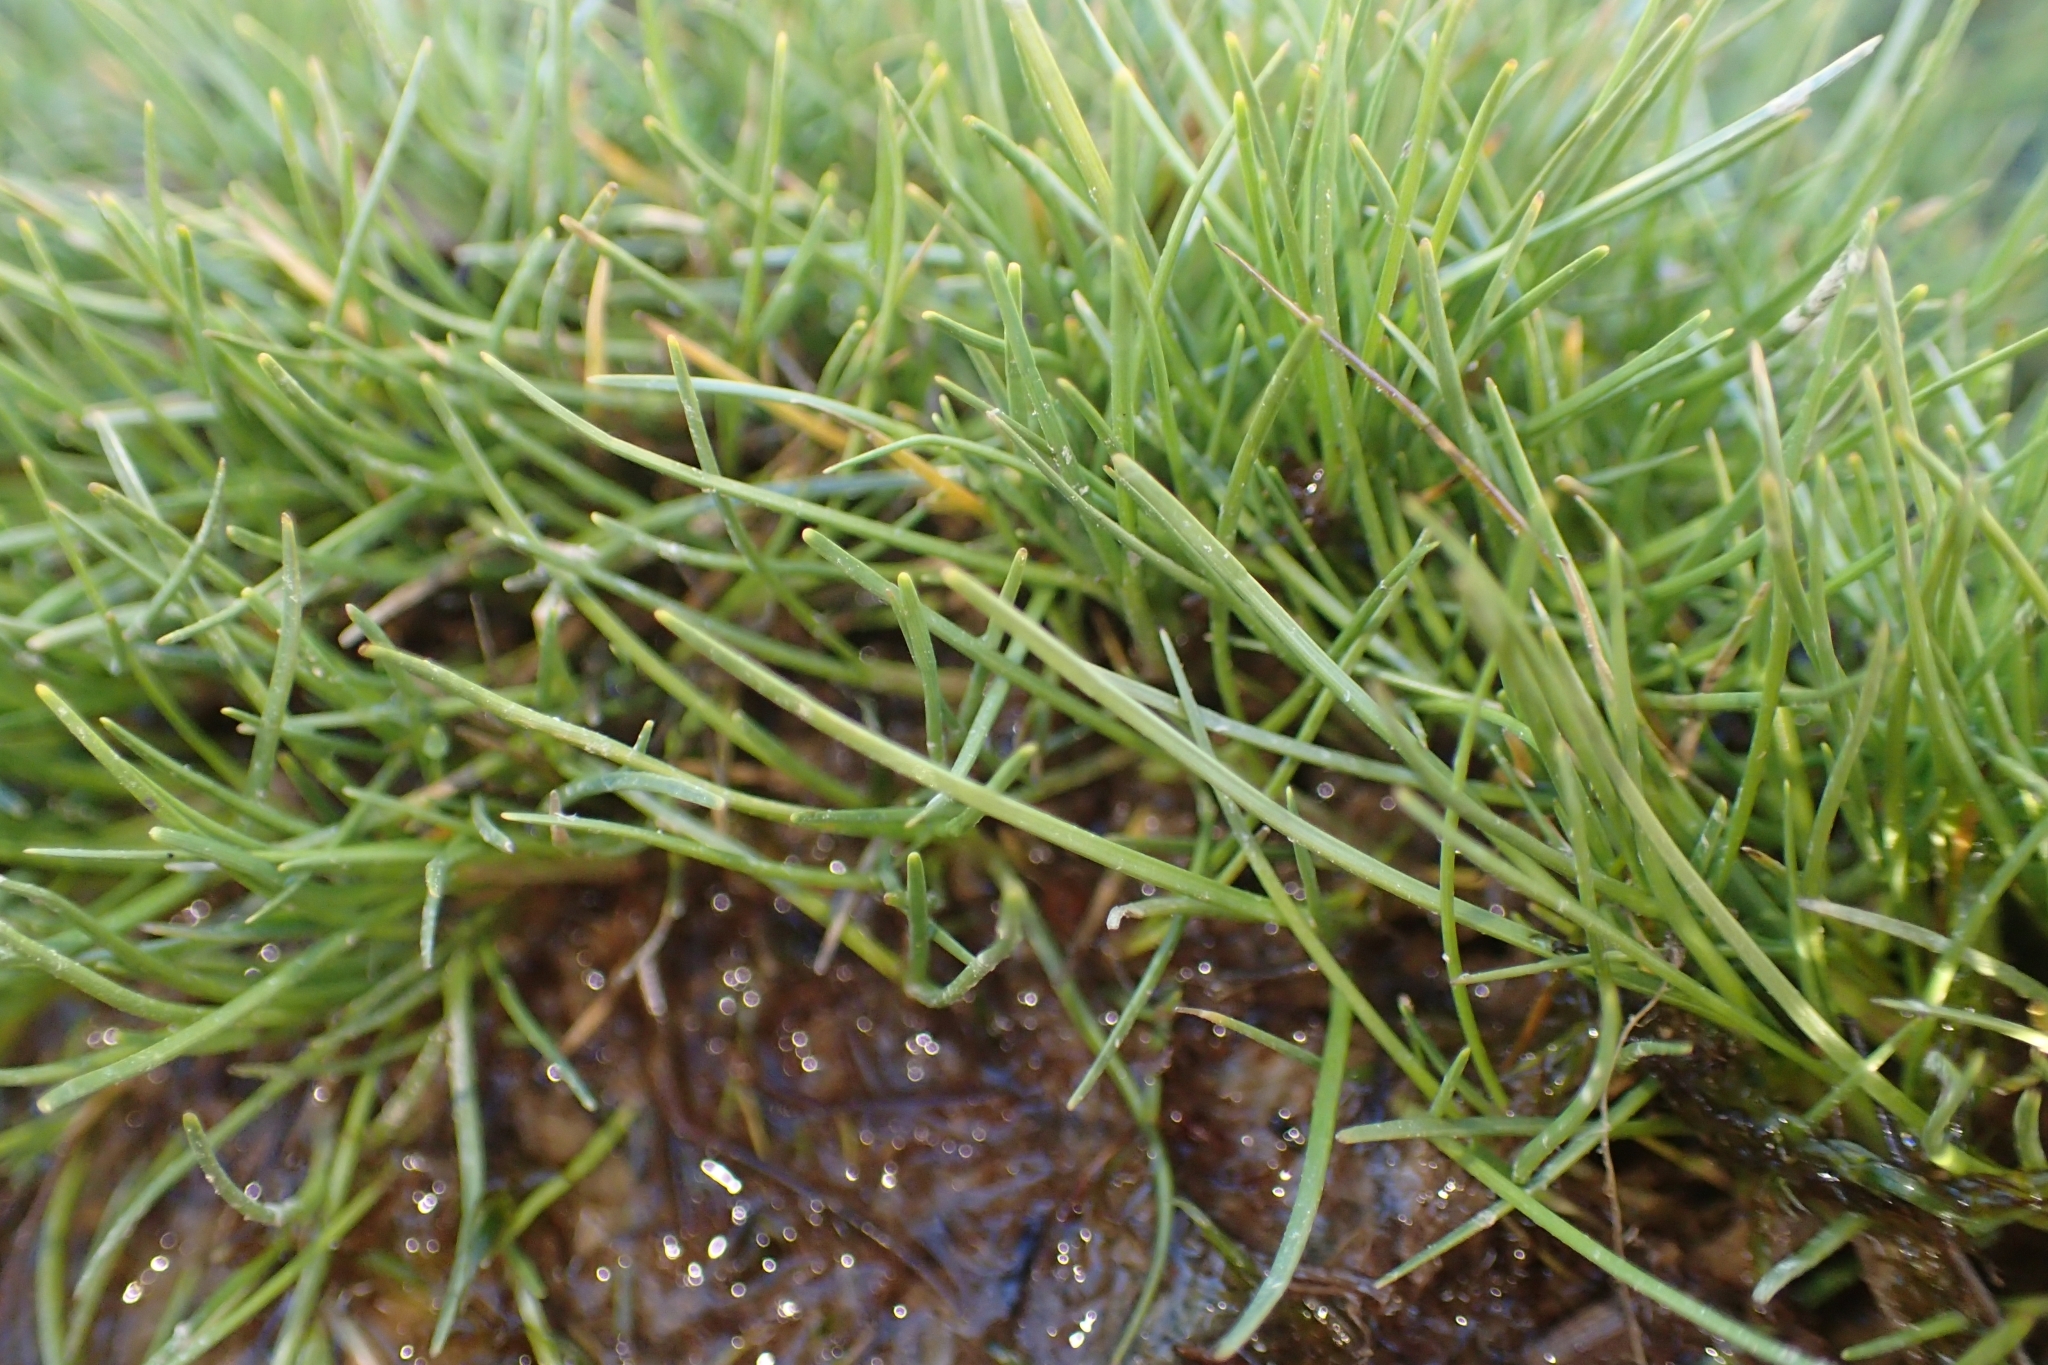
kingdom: Plantae
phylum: Tracheophyta
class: Liliopsida
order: Poales
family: Cyperaceae
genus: Oreobolus
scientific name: Oreobolus strictus
